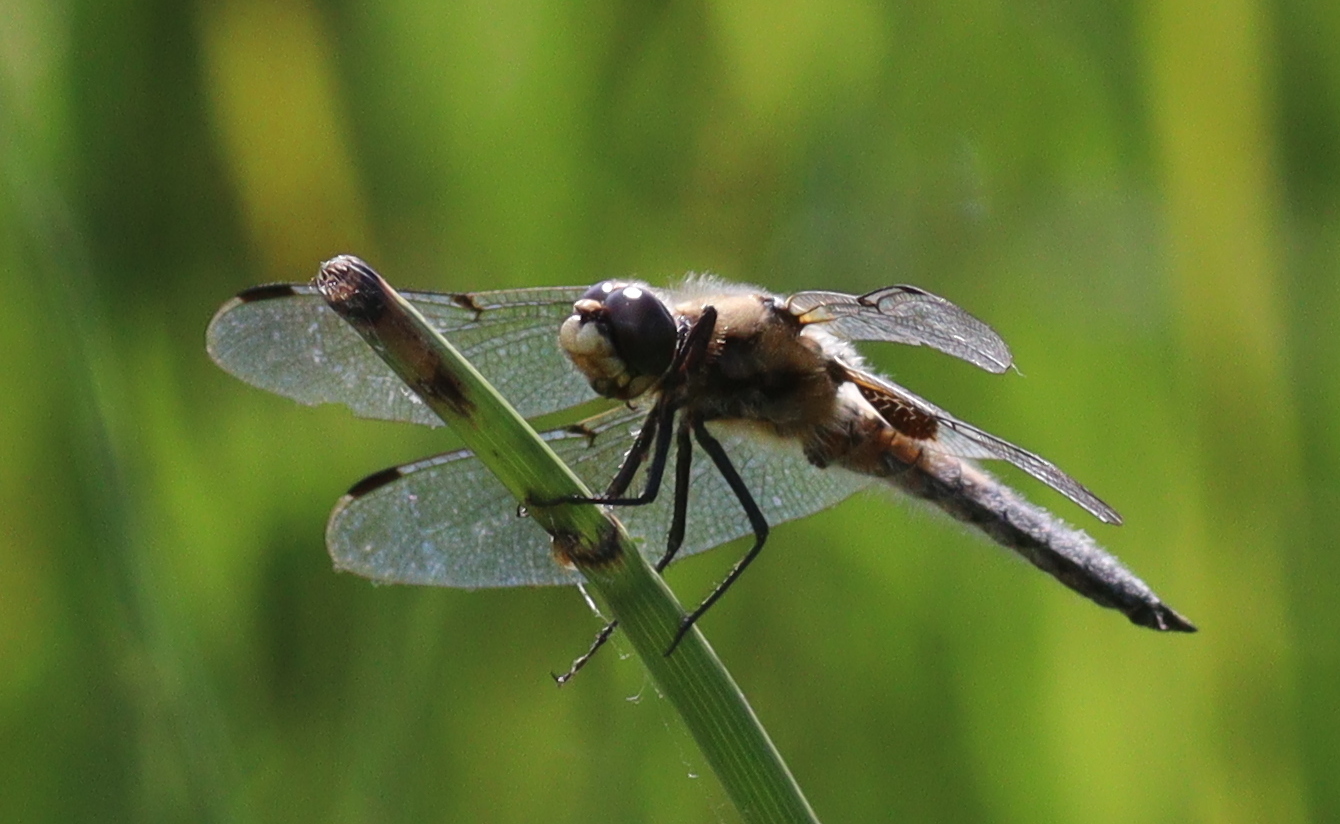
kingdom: Animalia
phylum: Arthropoda
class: Insecta
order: Odonata
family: Libellulidae
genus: Libellula
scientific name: Libellula quadrimaculata
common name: Four-spotted chaser
